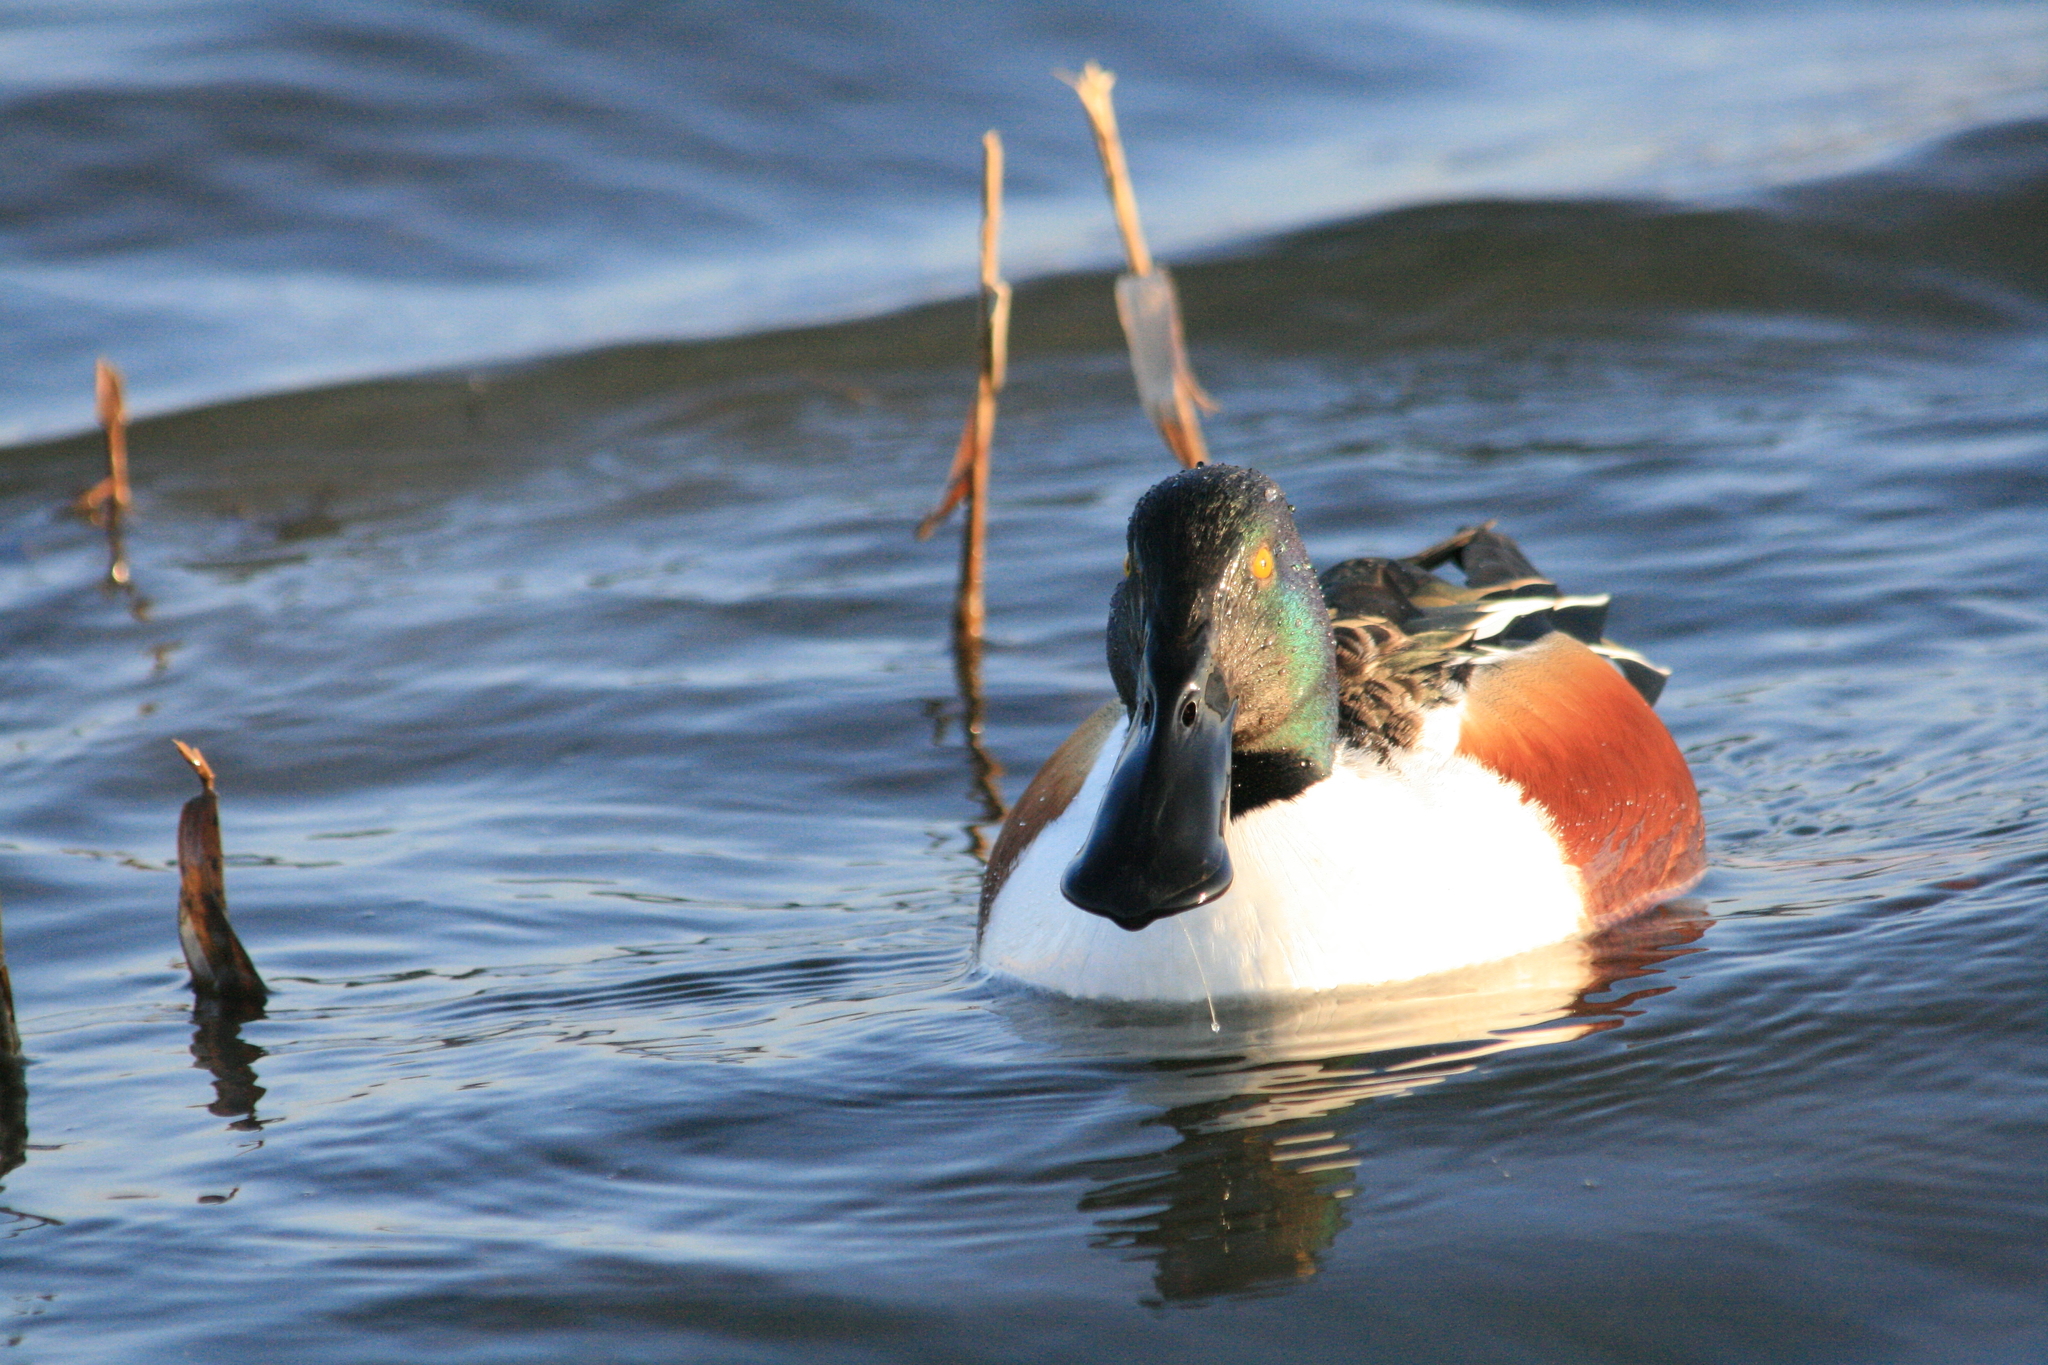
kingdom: Animalia
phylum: Chordata
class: Aves
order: Anseriformes
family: Anatidae
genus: Spatula
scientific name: Spatula clypeata
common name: Northern shoveler
